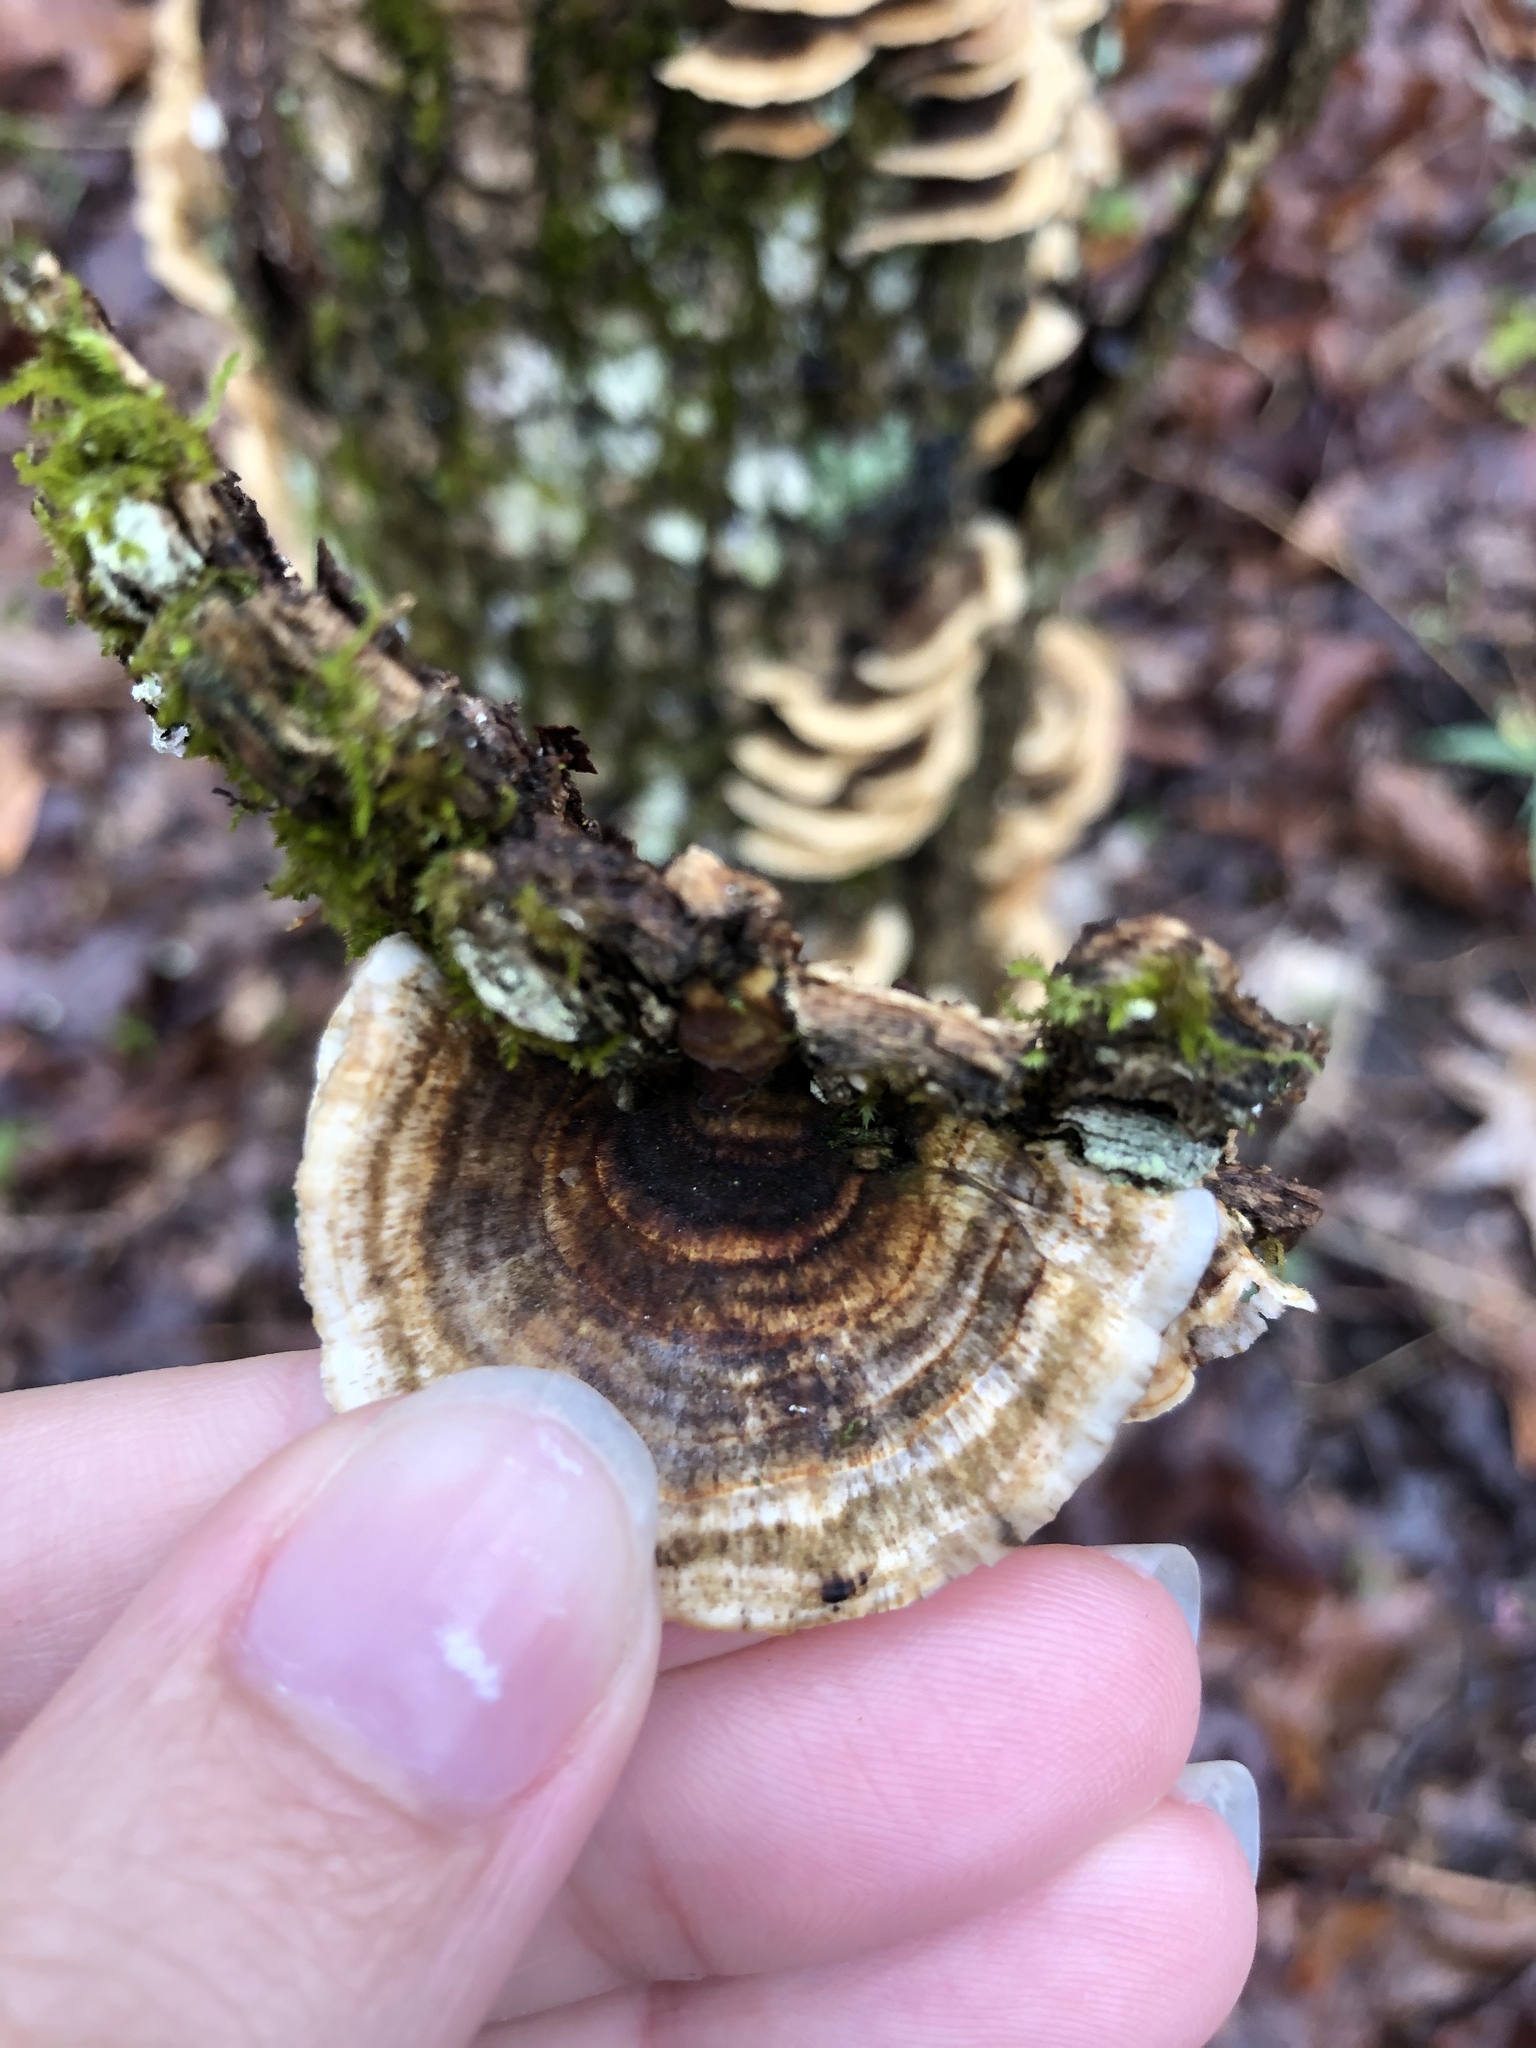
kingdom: Fungi
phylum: Basidiomycota
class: Agaricomycetes
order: Polyporales
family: Polyporaceae
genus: Trametes
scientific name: Trametes versicolor
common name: Turkeytail
